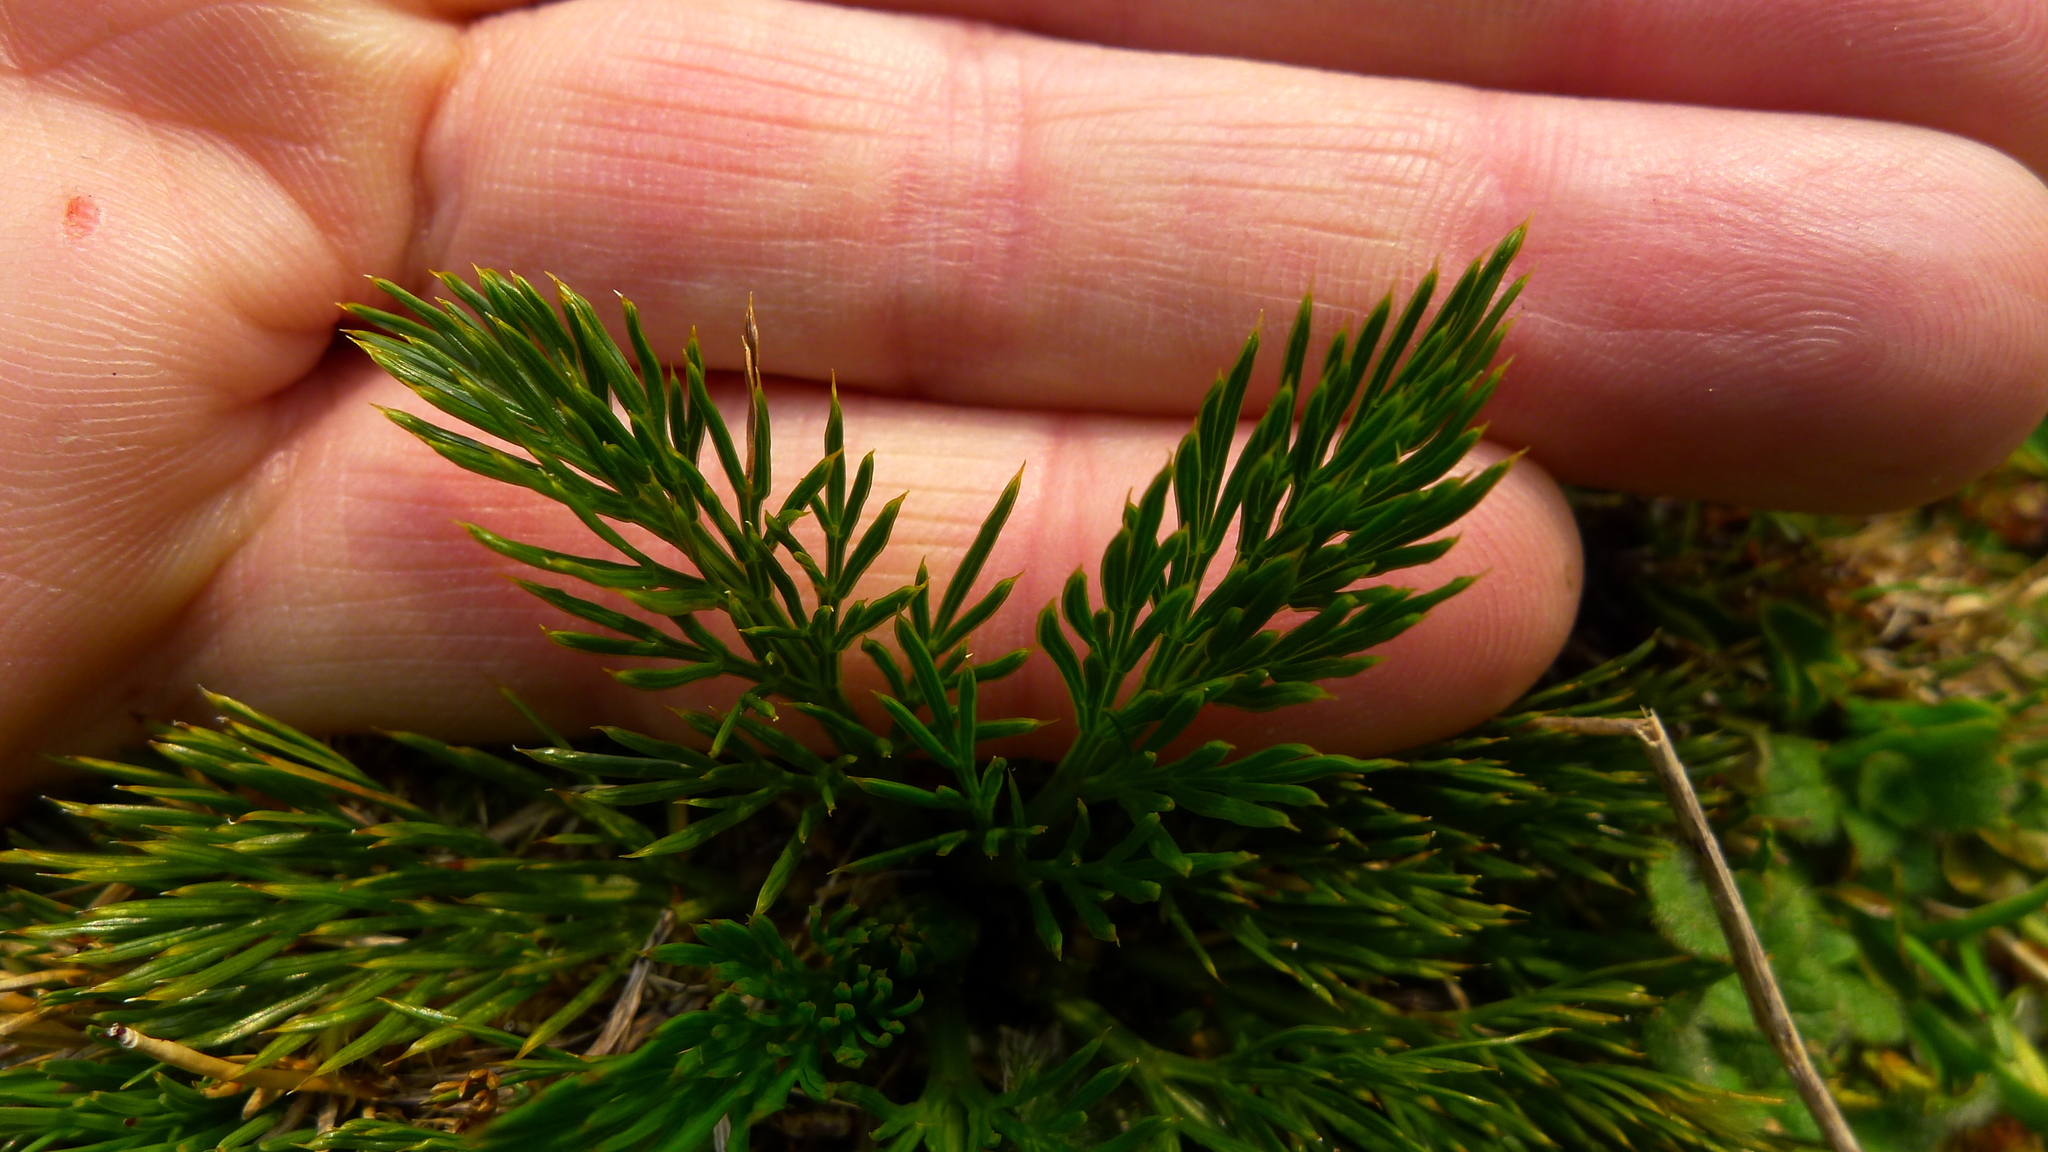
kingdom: Plantae
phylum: Tracheophyta
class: Magnoliopsida
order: Apiales
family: Apiaceae
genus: Aciphylla
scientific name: Aciphylla polita
